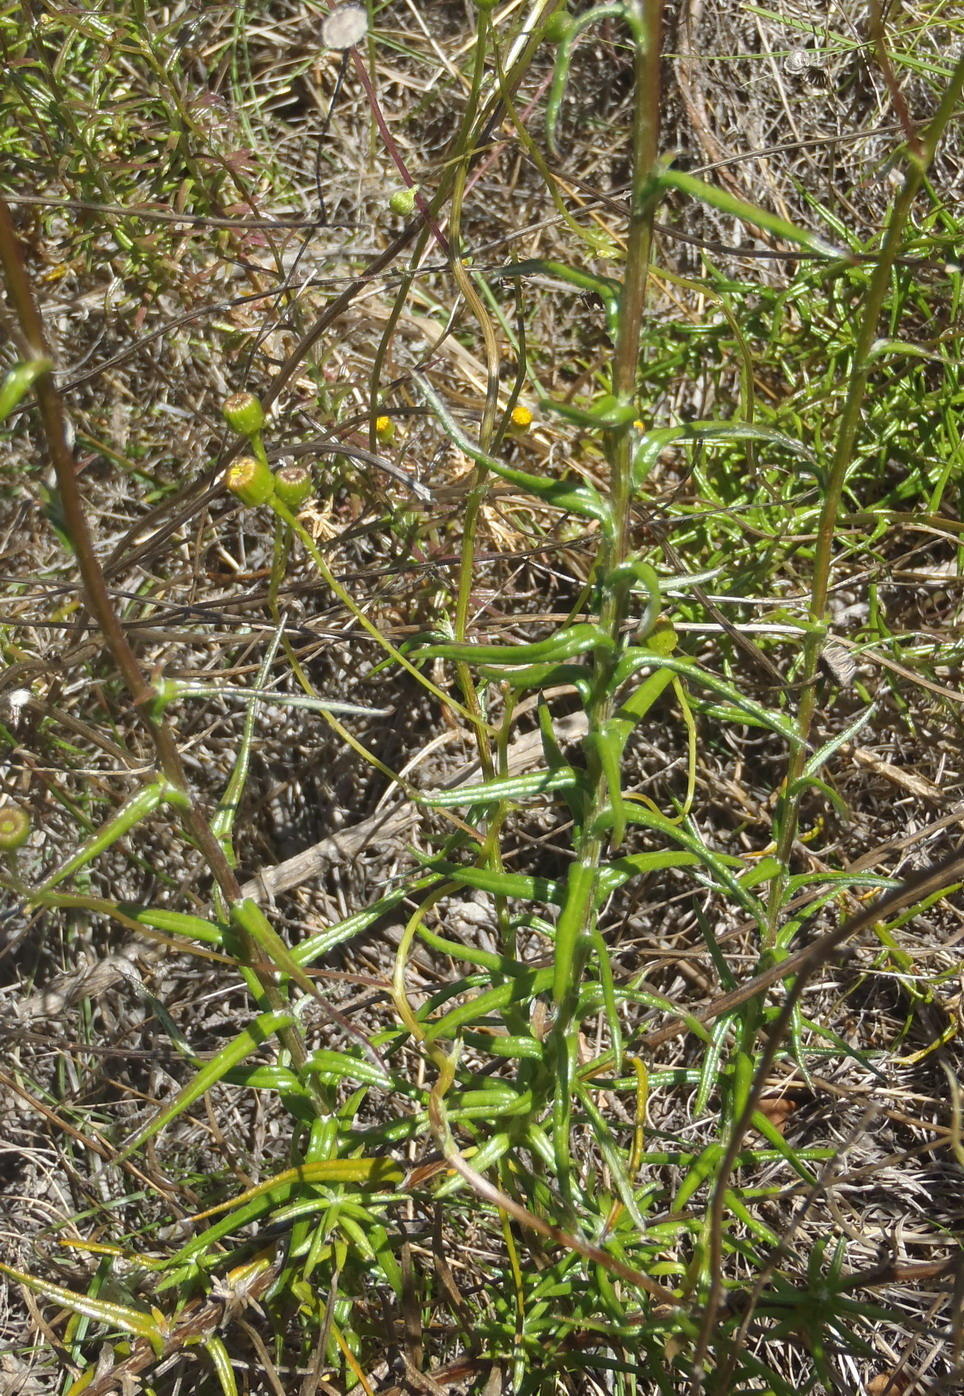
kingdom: Plantae
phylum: Tracheophyta
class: Magnoliopsida
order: Asterales
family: Asteraceae
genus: Senecio
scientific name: Senecio juniperinus
